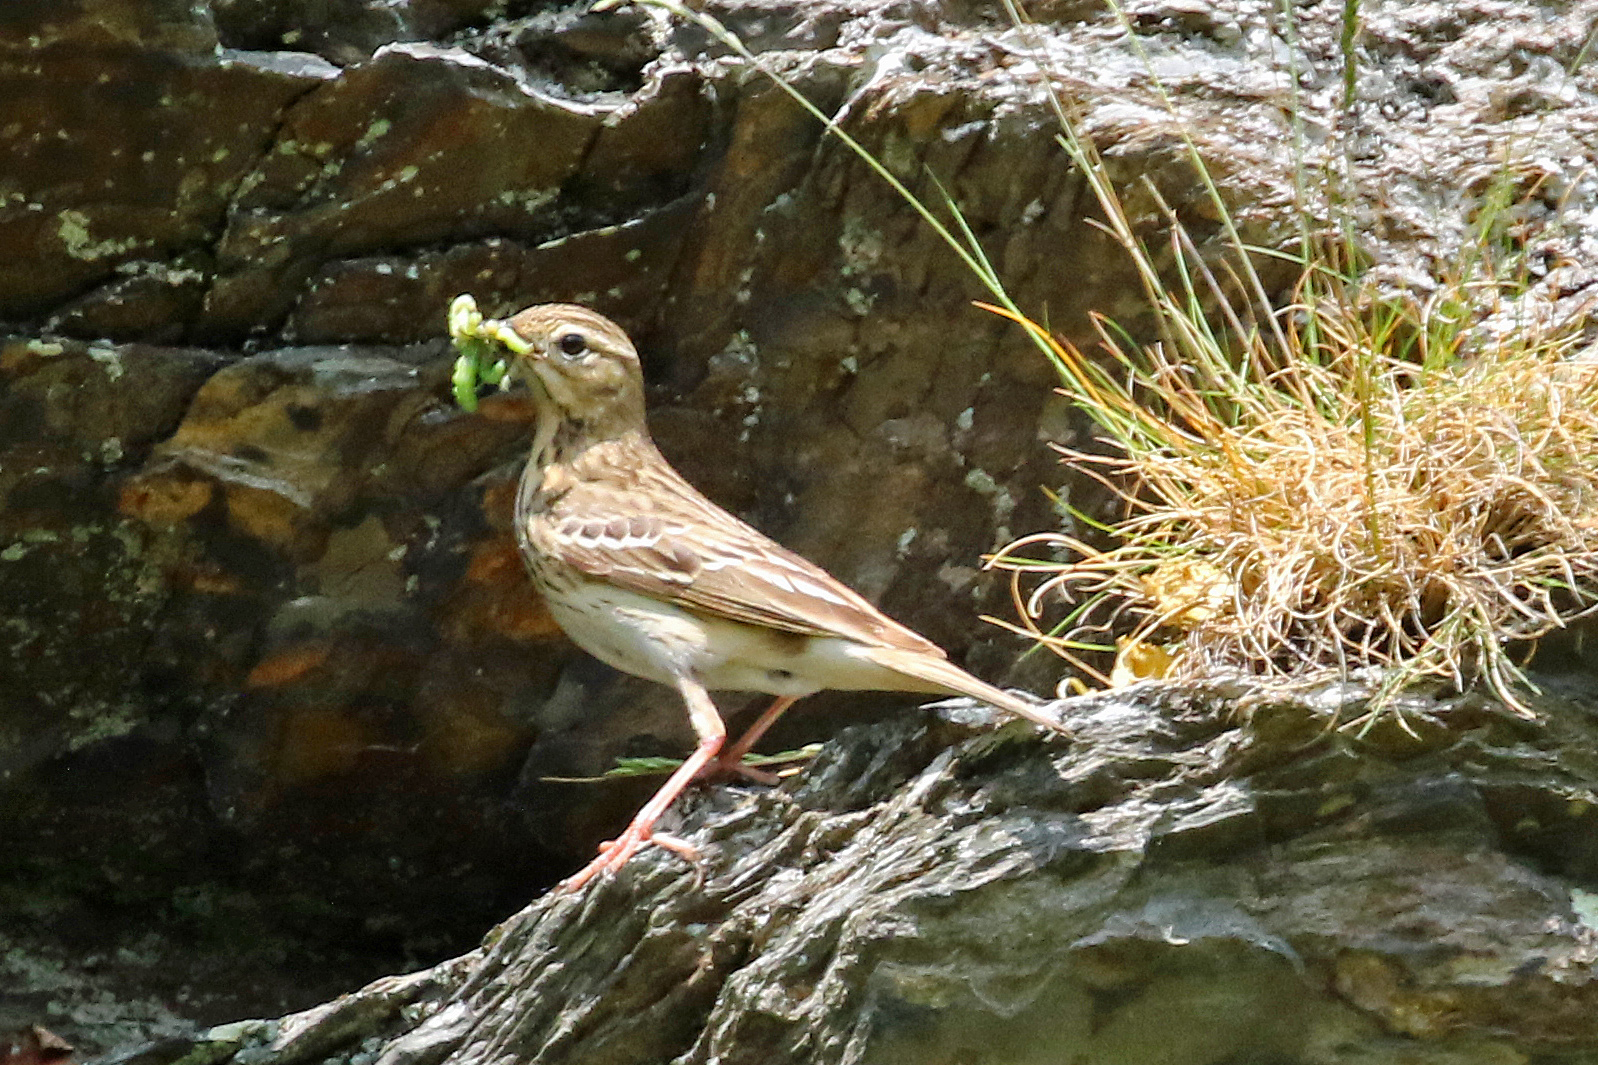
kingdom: Animalia
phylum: Chordata
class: Aves
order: Passeriformes
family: Motacillidae
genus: Anthus
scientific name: Anthus trivialis
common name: Tree pipit
